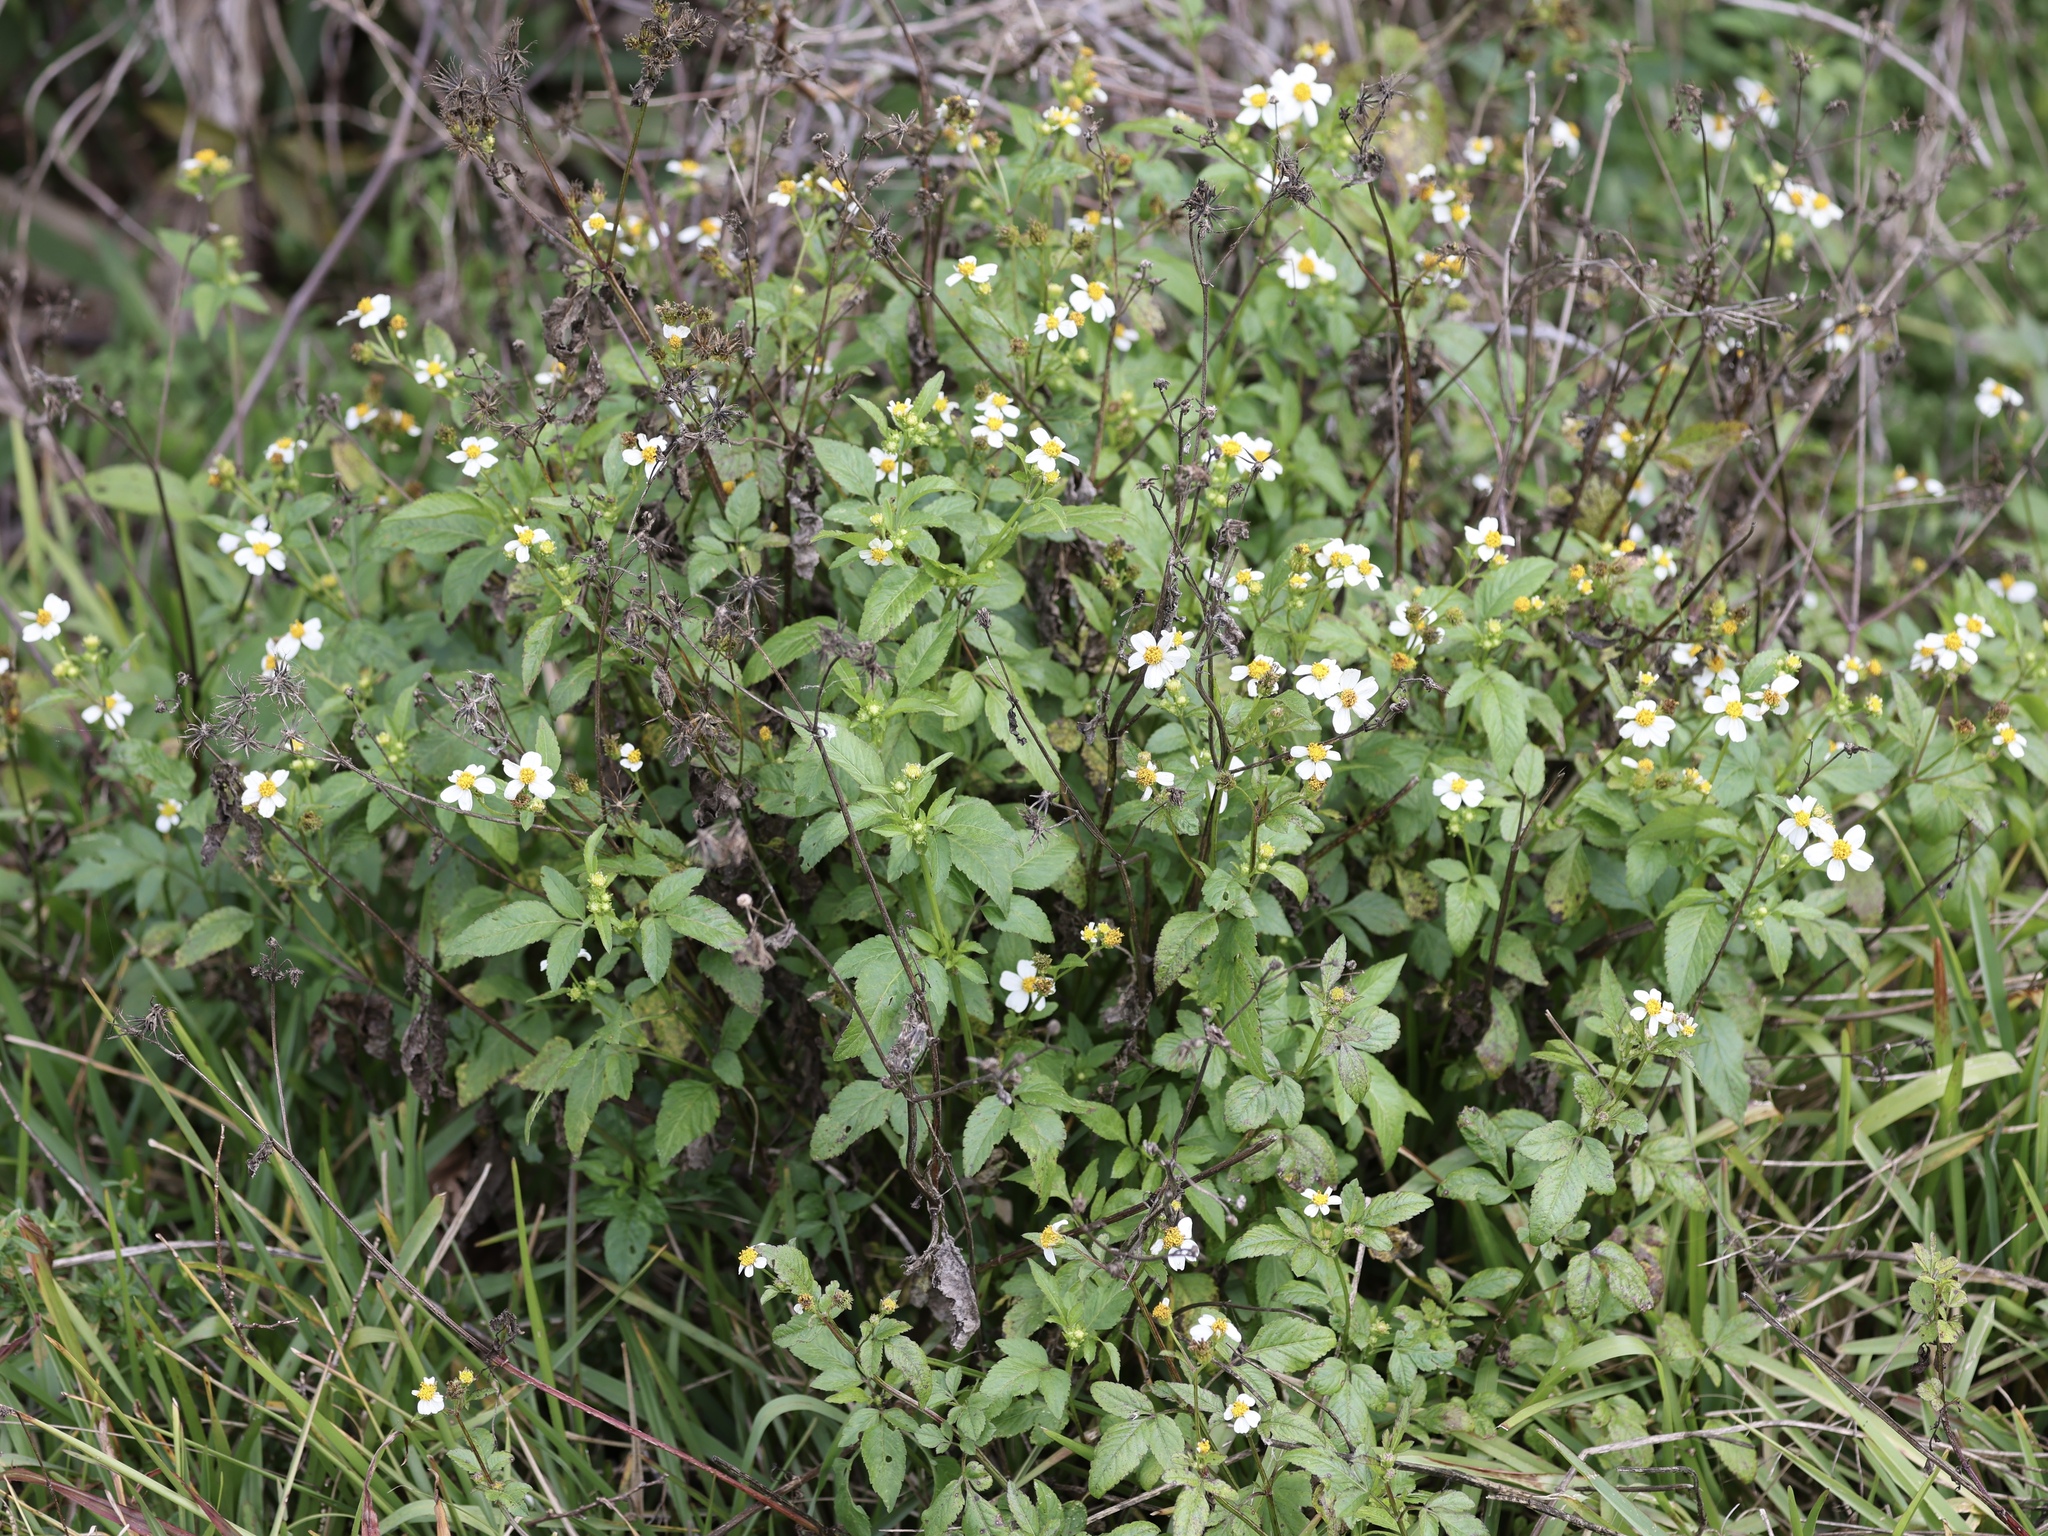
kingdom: Plantae
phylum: Tracheophyta
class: Magnoliopsida
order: Asterales
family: Asteraceae
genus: Bidens
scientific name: Bidens alba
